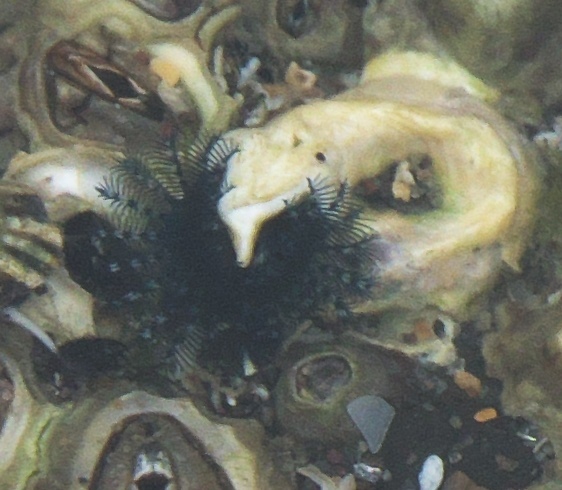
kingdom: Animalia
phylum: Annelida
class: Polychaeta
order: Sabellida
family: Serpulidae
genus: Spirobranchus
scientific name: Spirobranchus cariniferus
